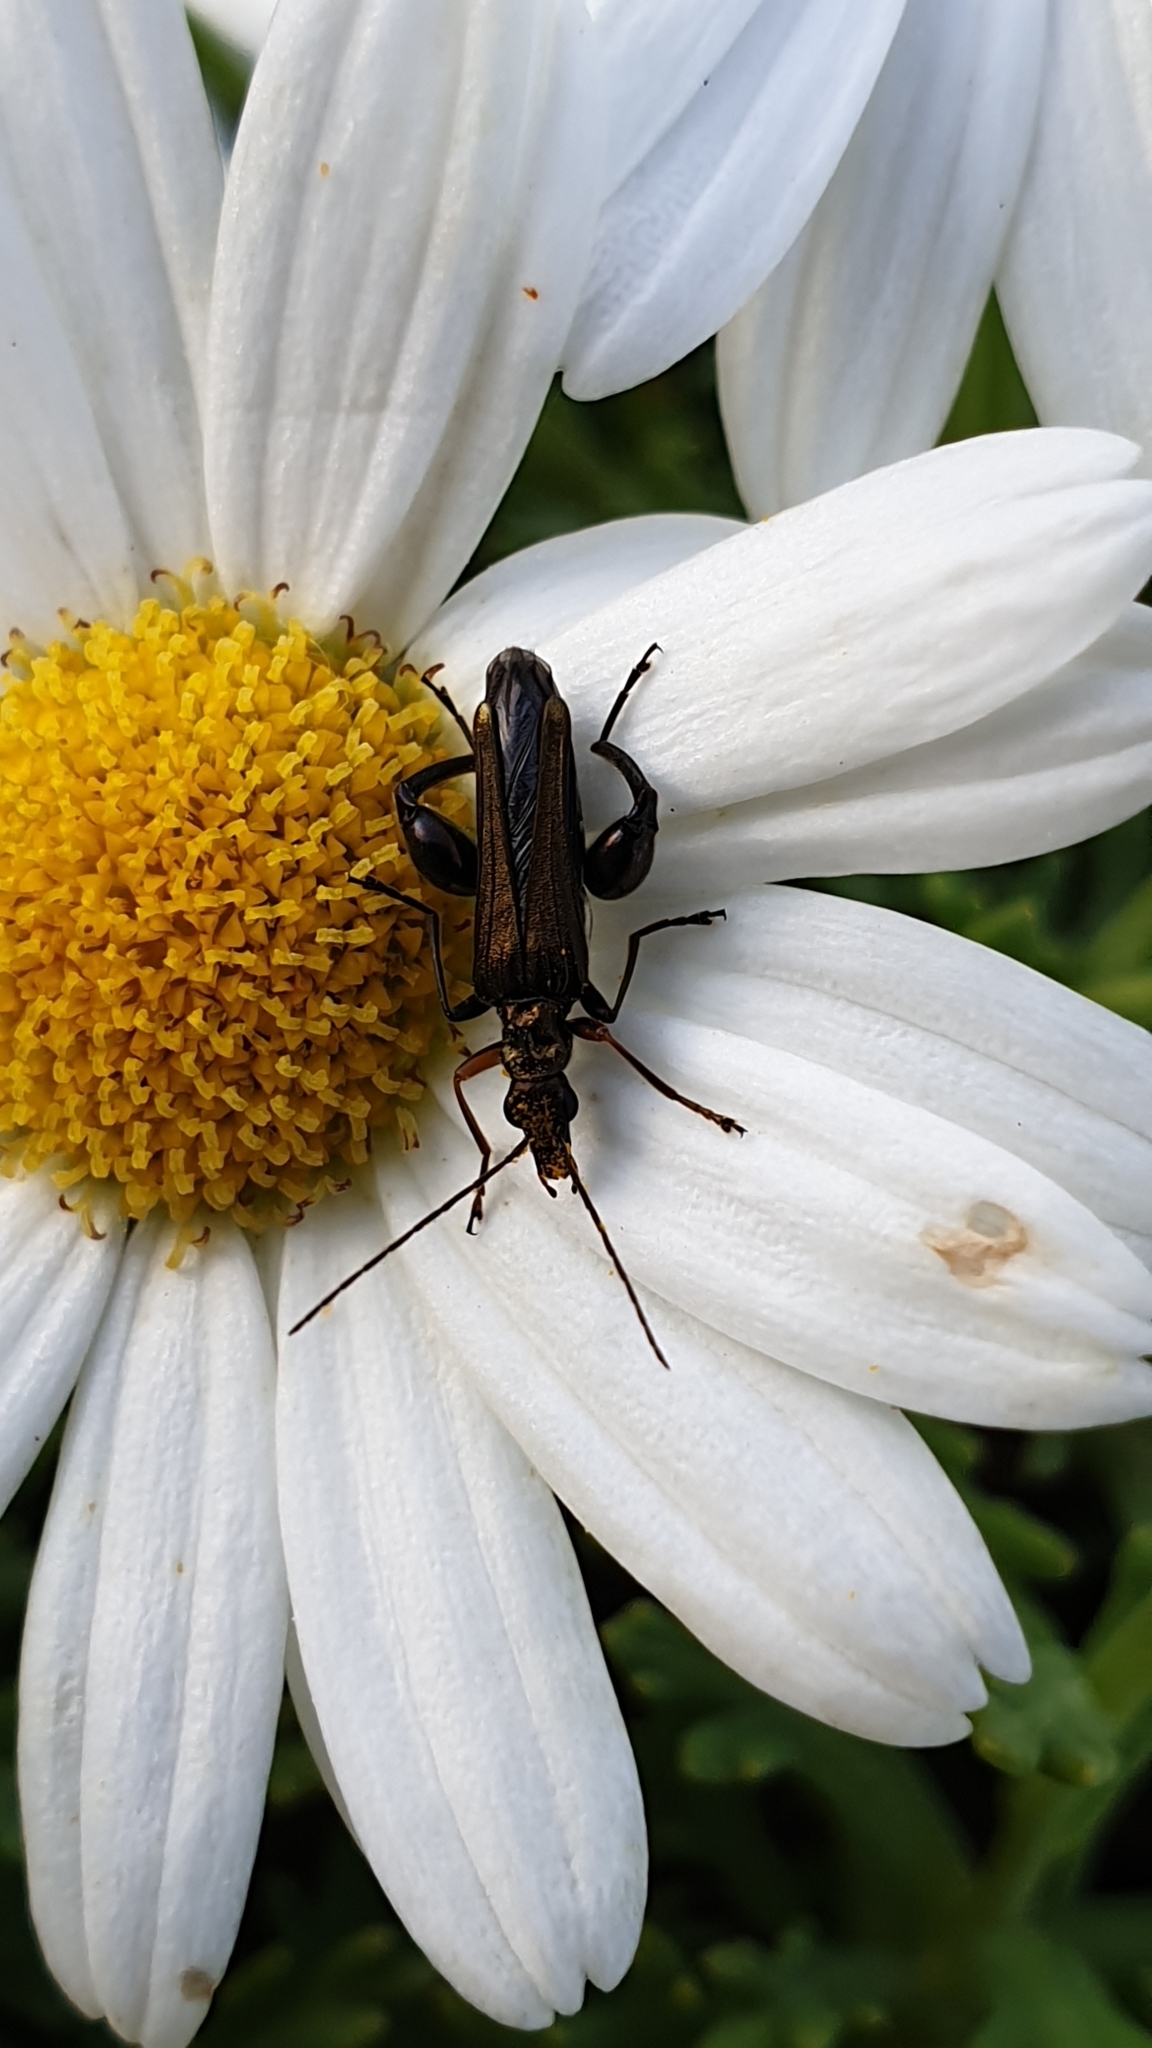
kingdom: Animalia
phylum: Arthropoda
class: Insecta
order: Coleoptera
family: Oedemeridae
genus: Oedemera
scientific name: Oedemera flavipes
